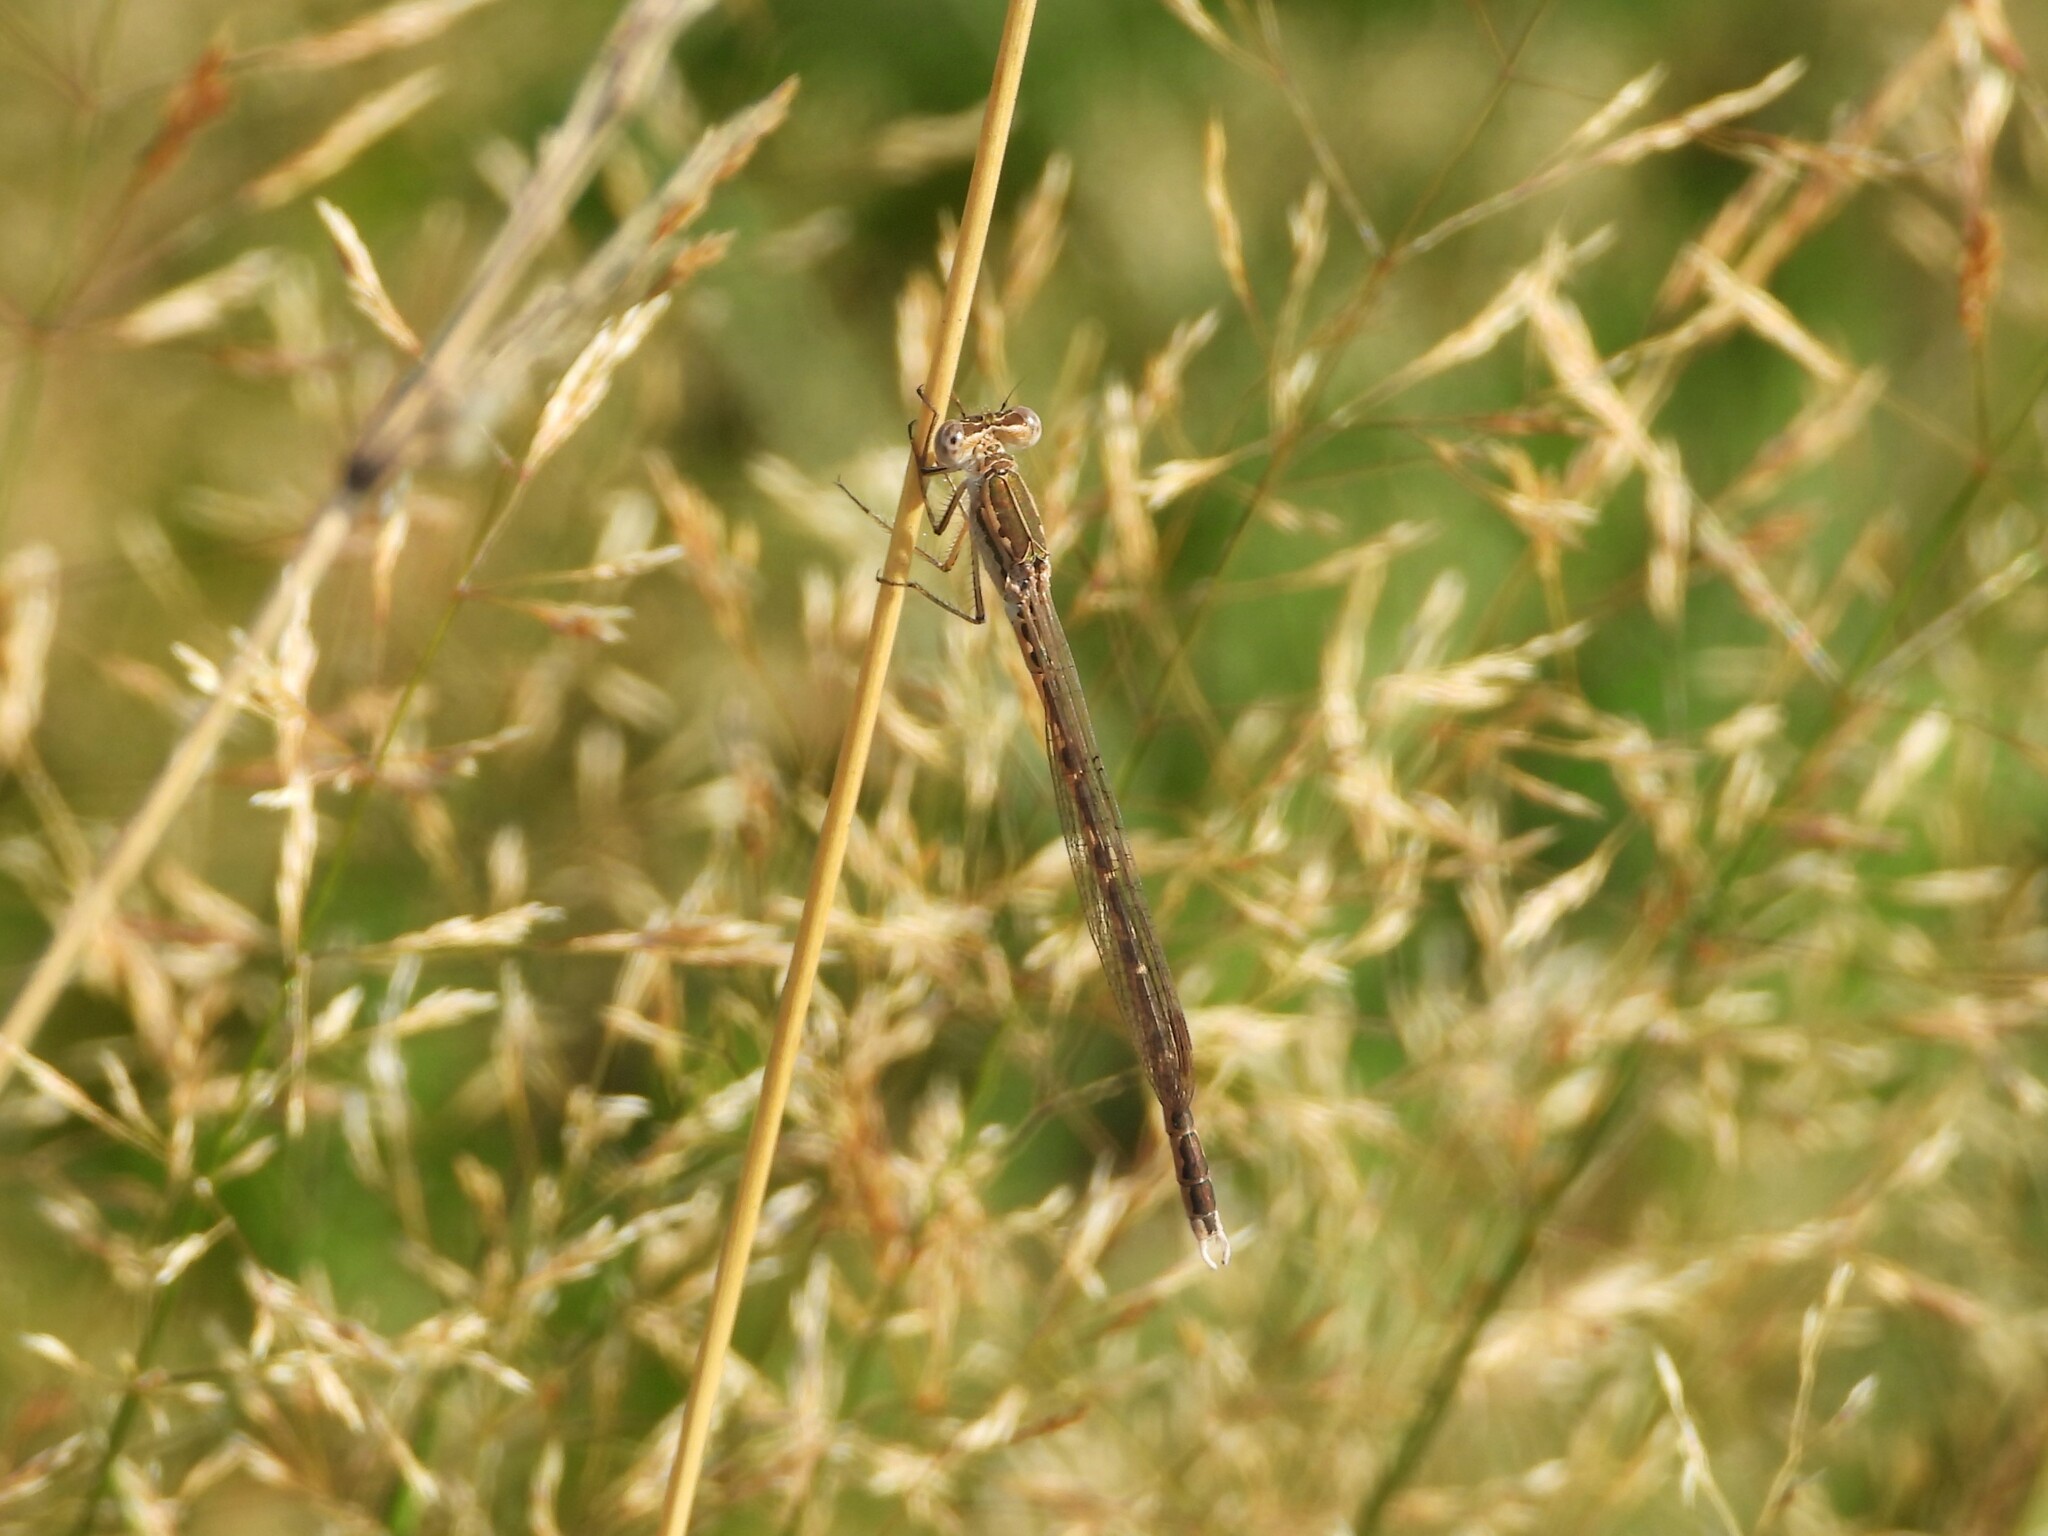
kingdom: Animalia
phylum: Arthropoda
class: Insecta
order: Odonata
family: Lestidae
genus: Sympecma
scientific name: Sympecma paedisca
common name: Siberian winter damsel
